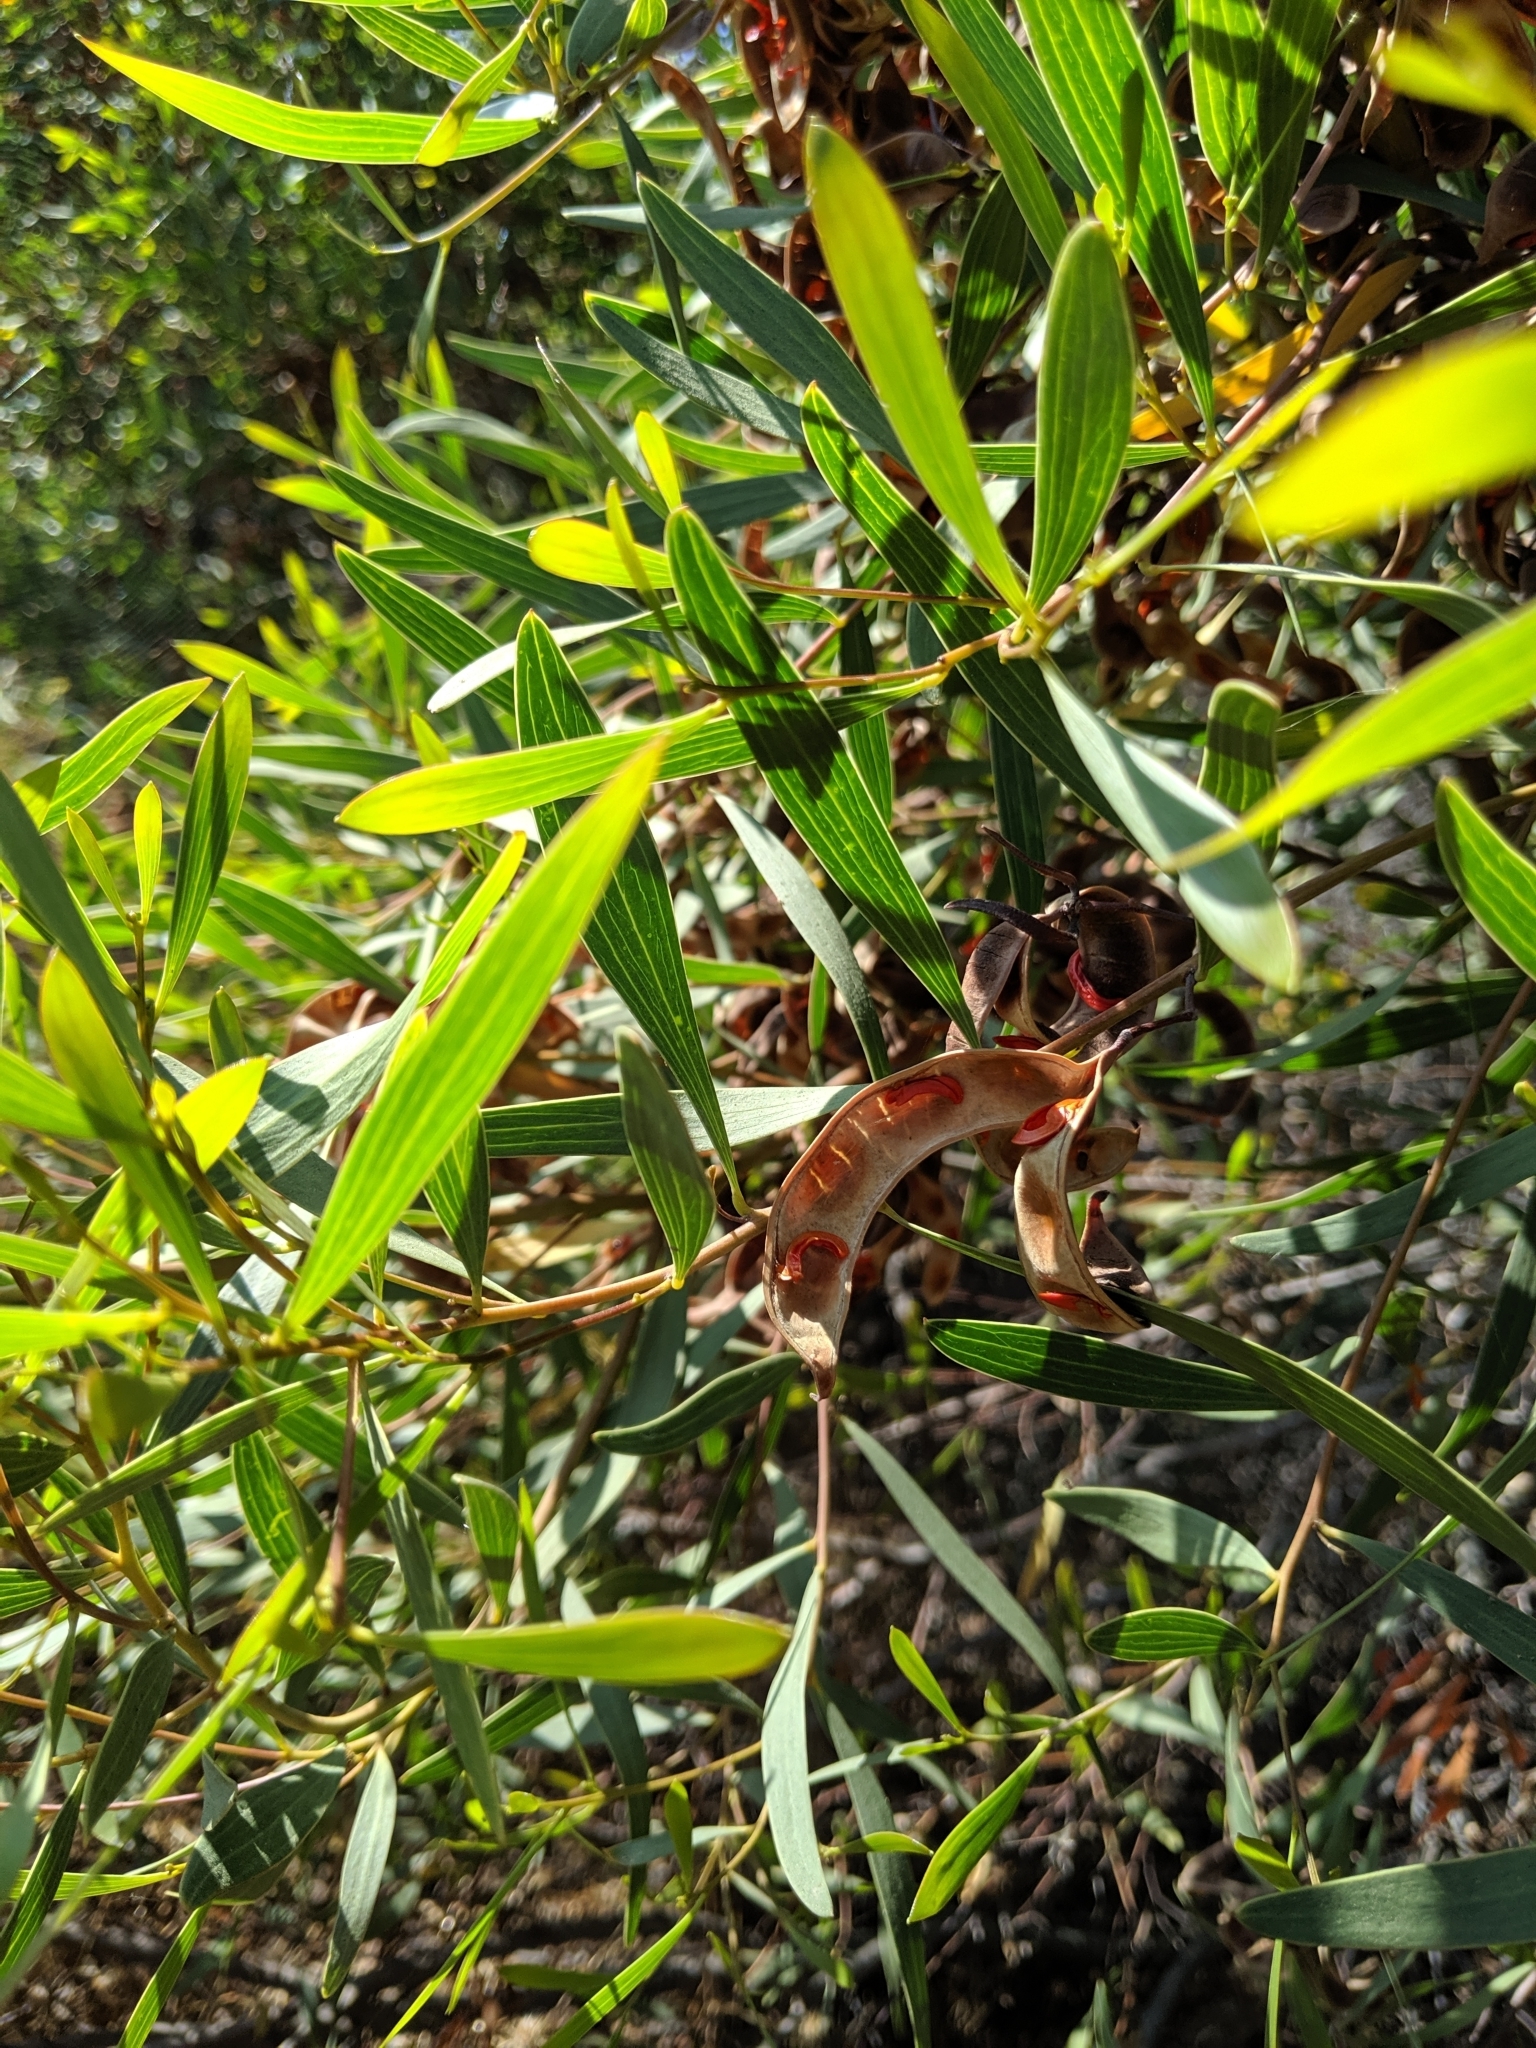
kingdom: Plantae
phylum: Tracheophyta
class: Magnoliopsida
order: Fabales
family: Fabaceae
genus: Acacia
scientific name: Acacia cyclops
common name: Coastal wattle
